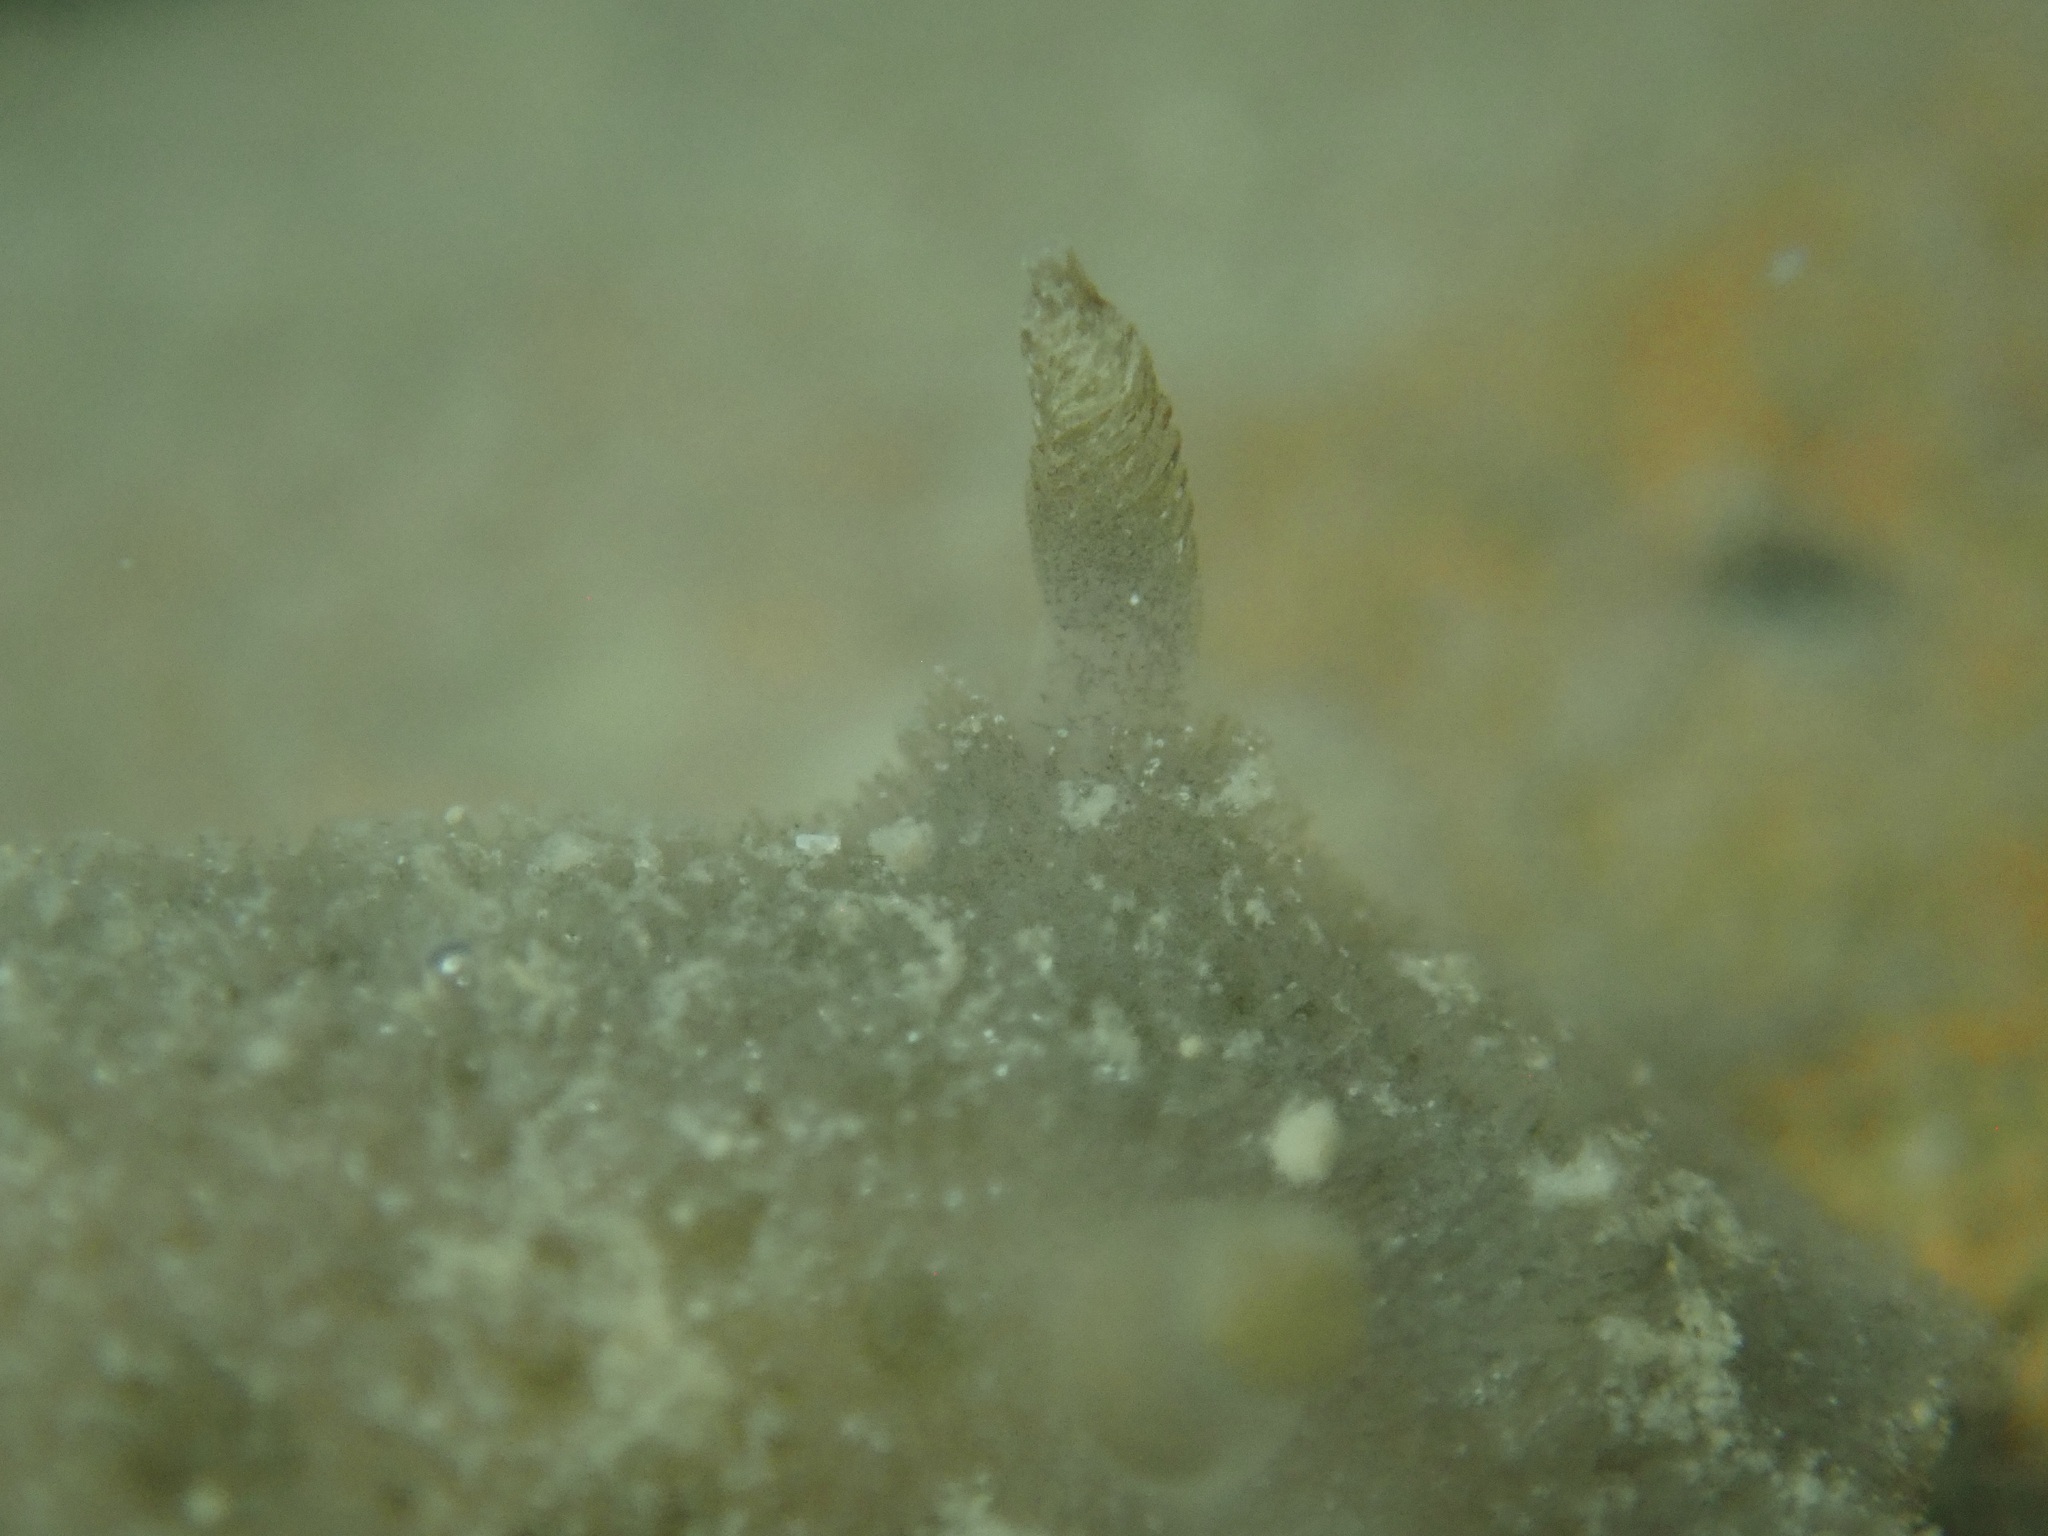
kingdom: Animalia
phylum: Mollusca
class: Gastropoda
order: Nudibranchia
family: Discodorididae
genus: Jorunna
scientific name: Jorunna osae
